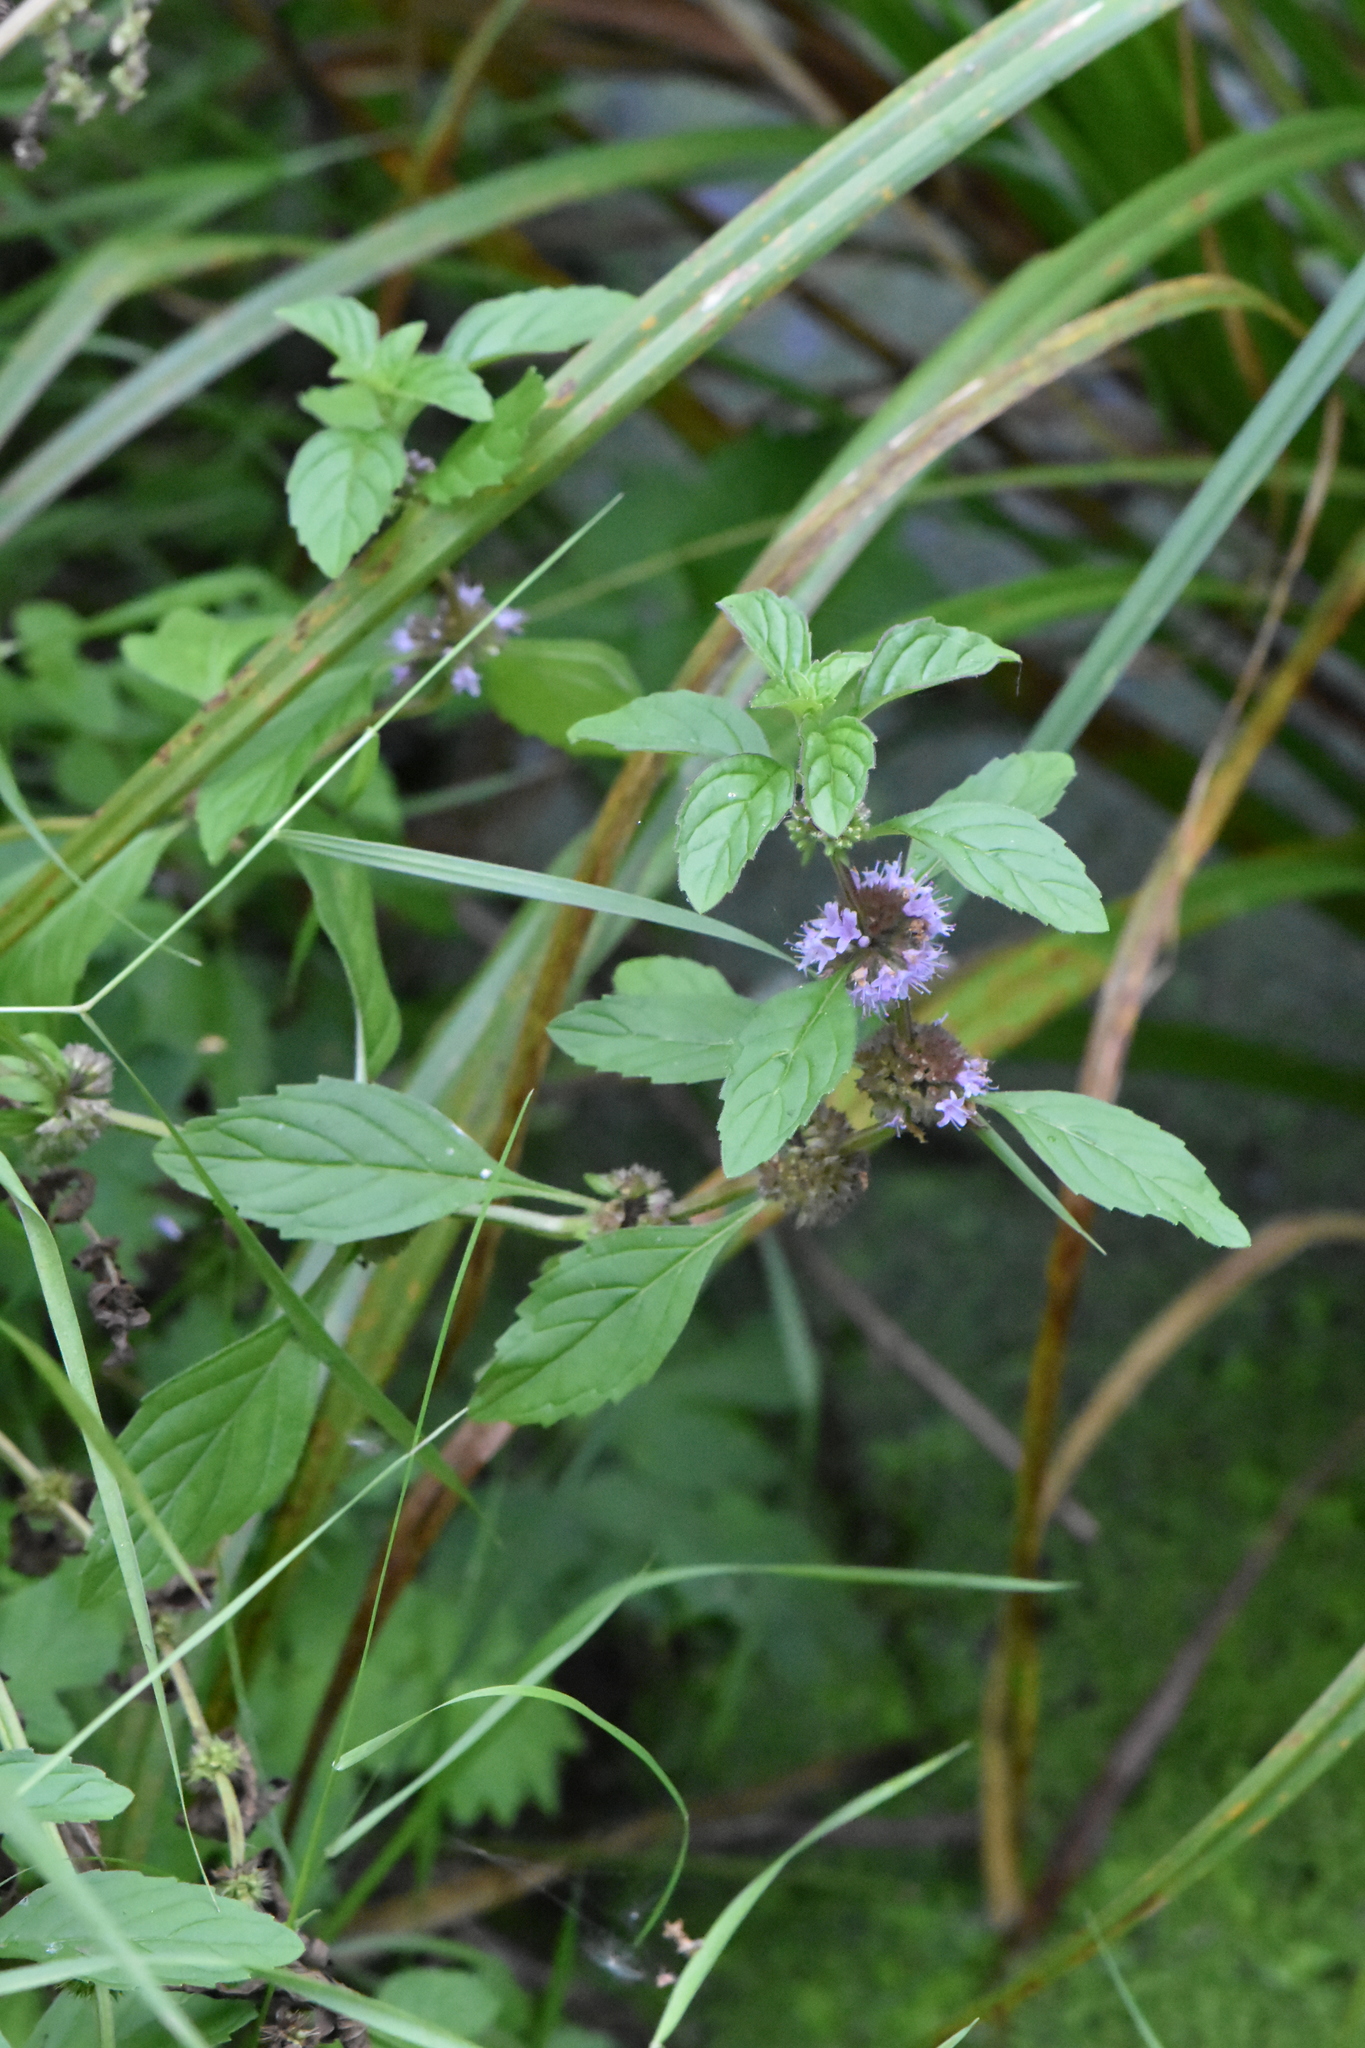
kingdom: Plantae
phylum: Tracheophyta
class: Magnoliopsida
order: Lamiales
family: Lamiaceae
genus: Mentha
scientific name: Mentha arvensis
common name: Corn mint
